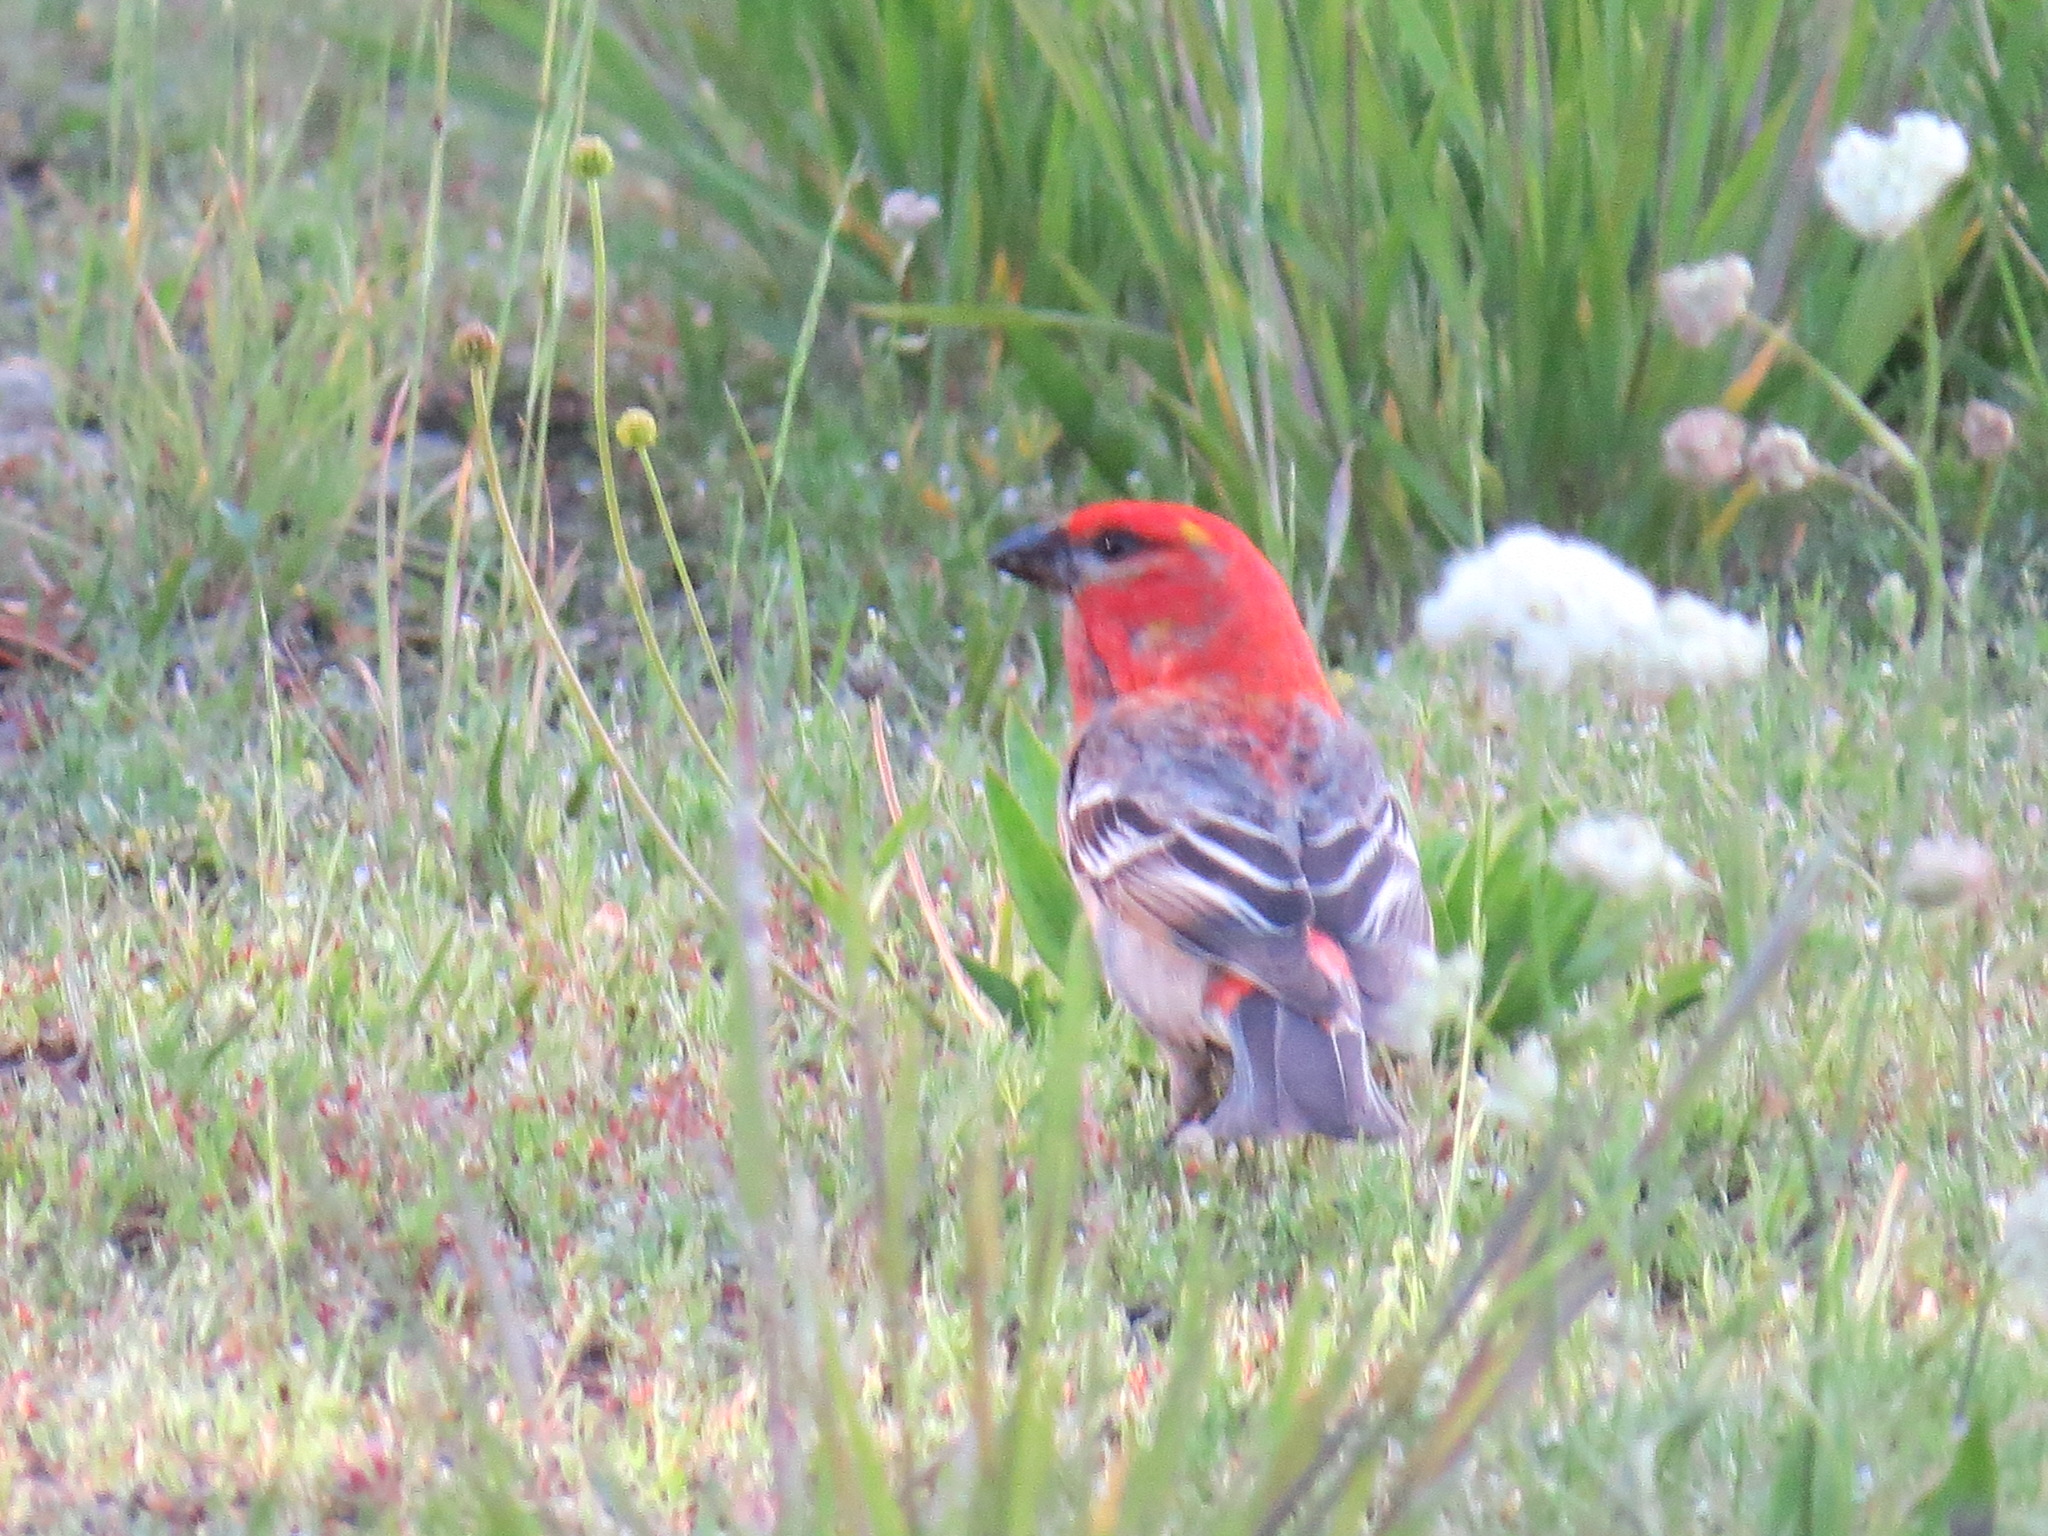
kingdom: Animalia
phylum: Chordata
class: Aves
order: Passeriformes
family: Fringillidae
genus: Pinicola
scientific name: Pinicola enucleator
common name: Pine grosbeak
